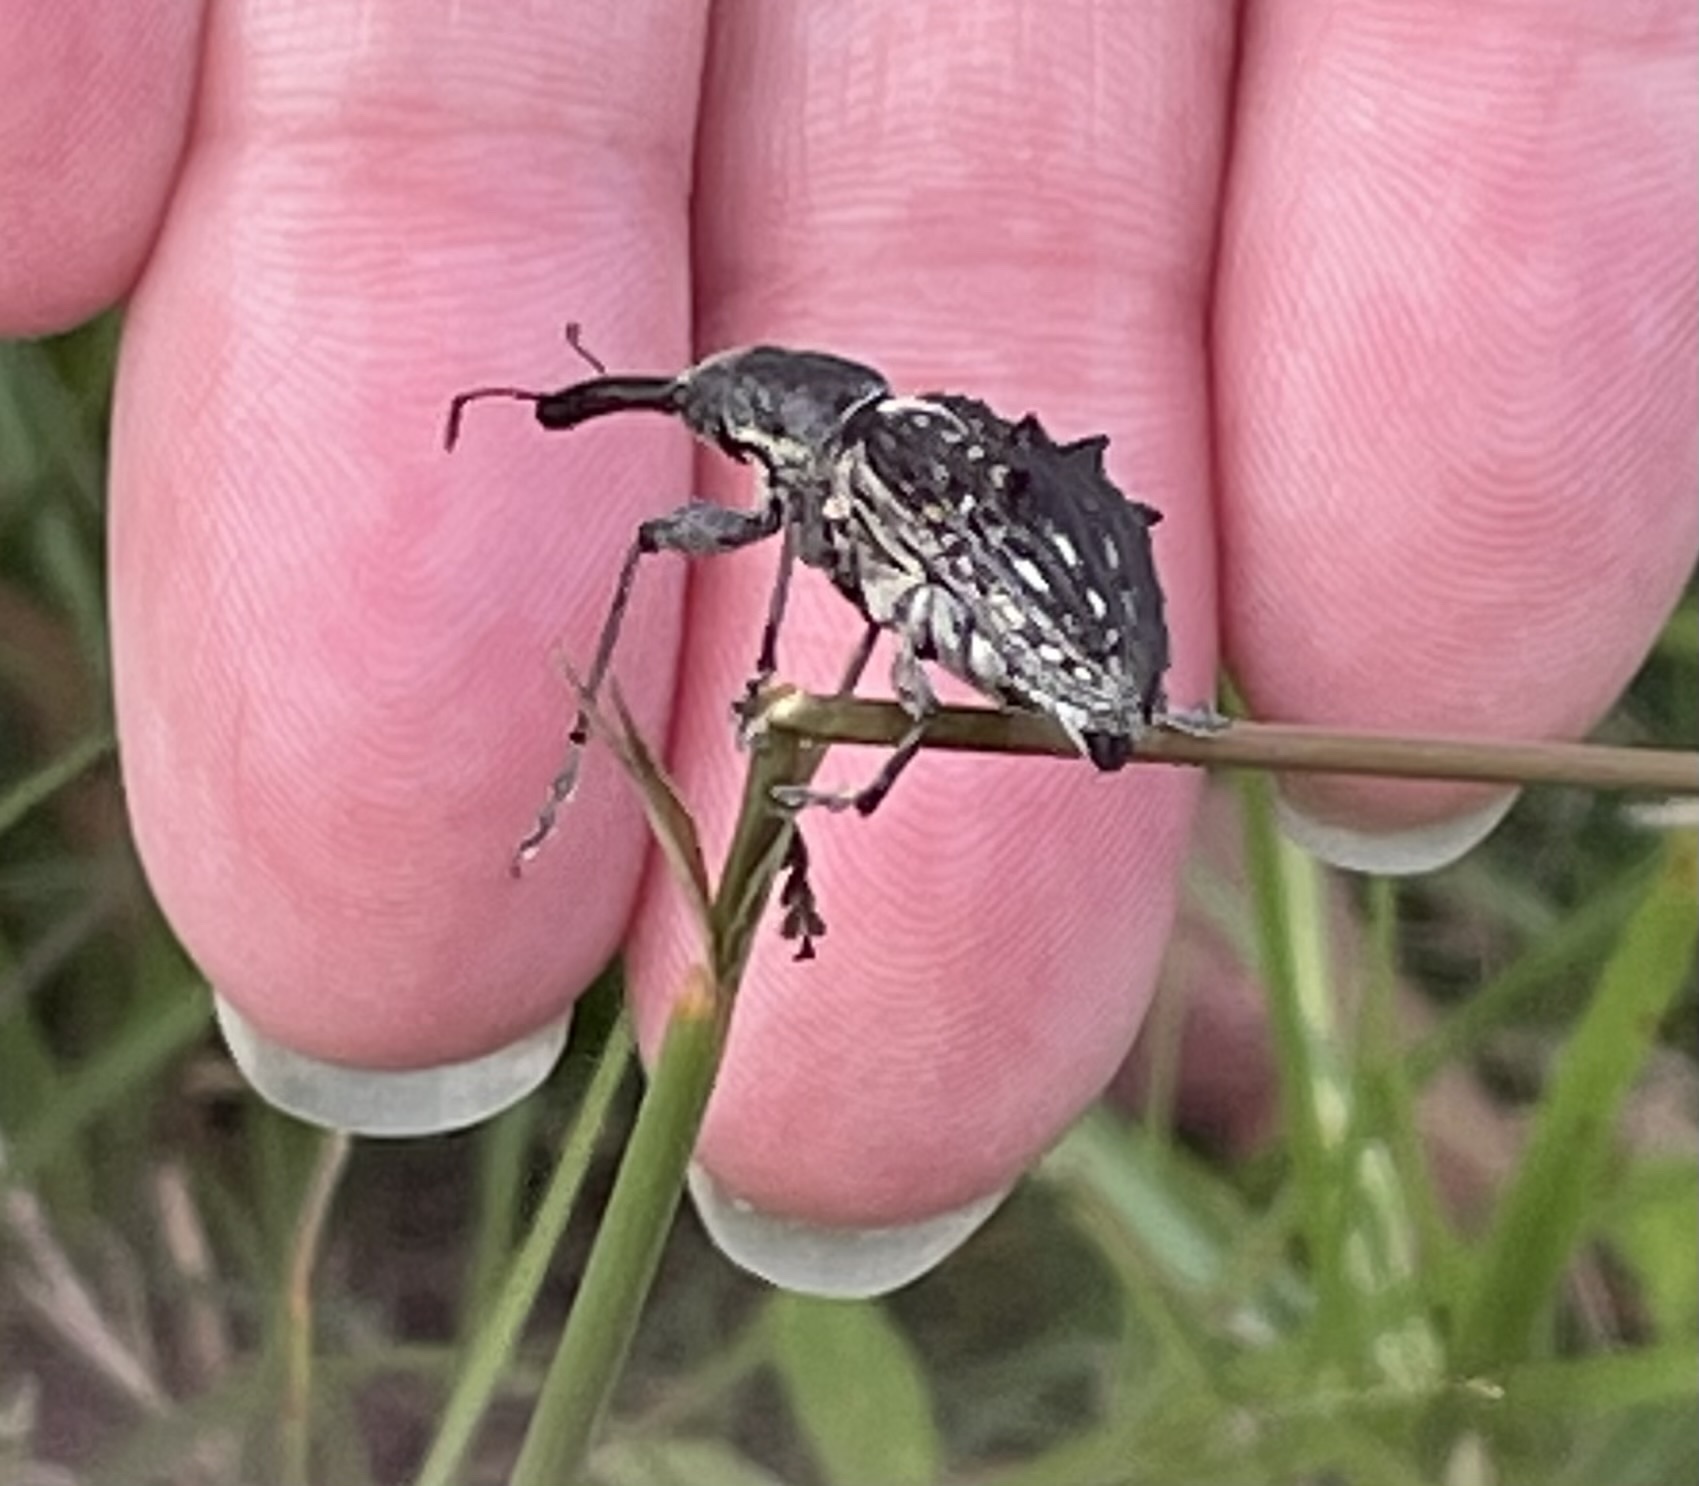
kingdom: Animalia
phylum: Arthropoda
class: Insecta
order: Coleoptera
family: Eurhynchidae
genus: Eurhynchus
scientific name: Eurhynchus quadrituberculatus
